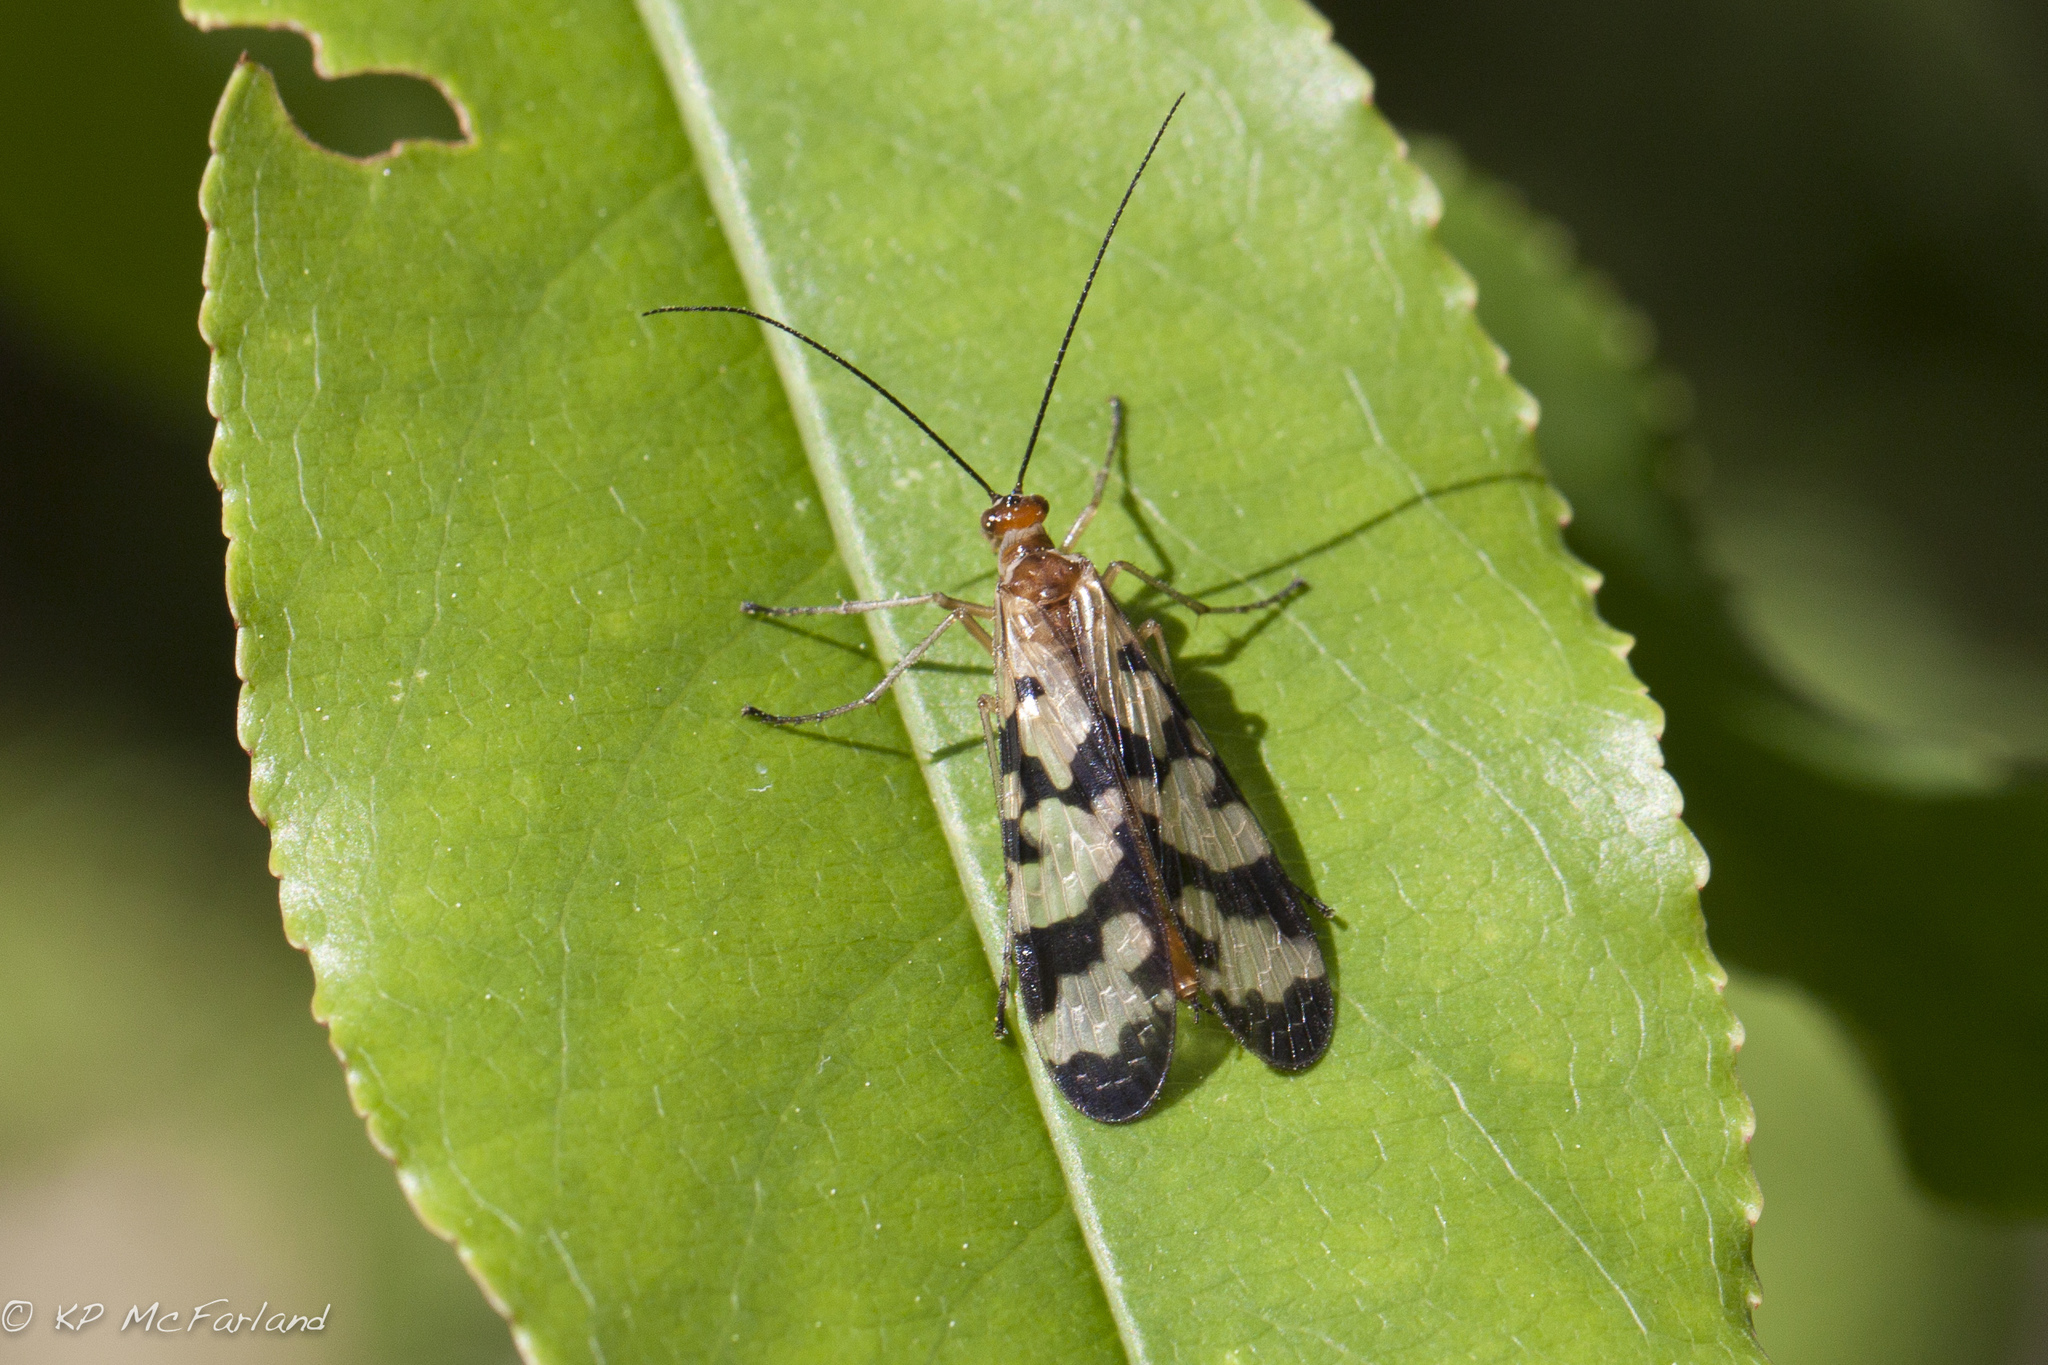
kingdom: Animalia
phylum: Arthropoda
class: Insecta
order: Mecoptera
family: Panorpidae
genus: Panorpa
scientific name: Panorpa galerita
